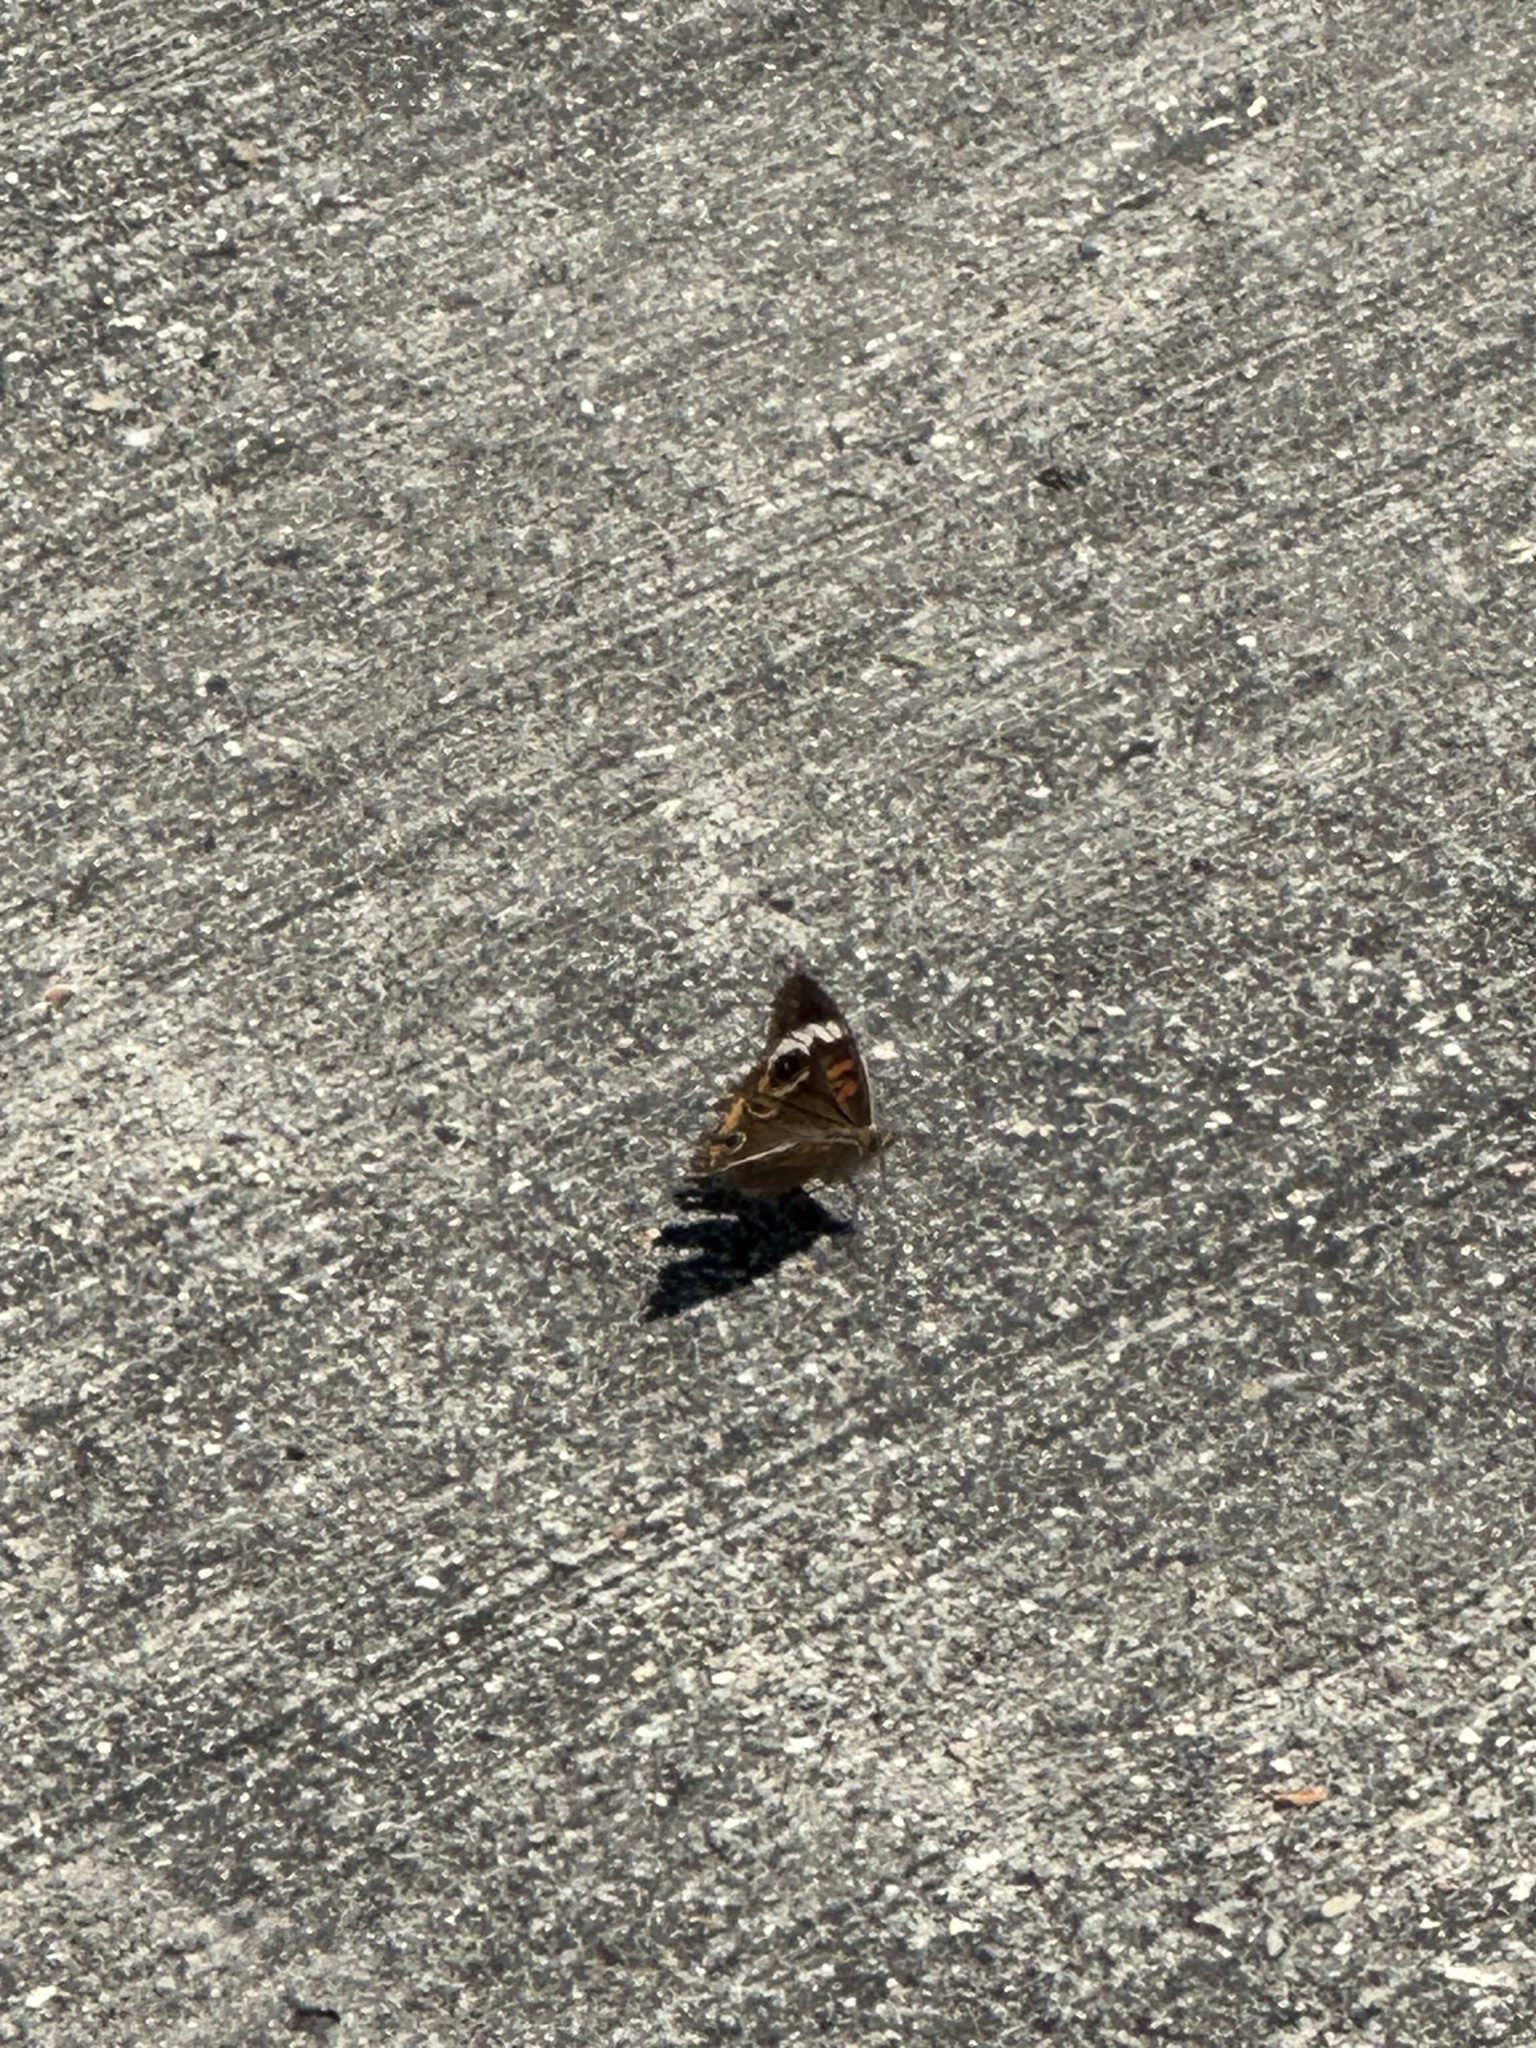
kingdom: Animalia
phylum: Arthropoda
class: Insecta
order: Lepidoptera
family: Nymphalidae
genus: Junonia
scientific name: Junonia coenia
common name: Common buckeye
